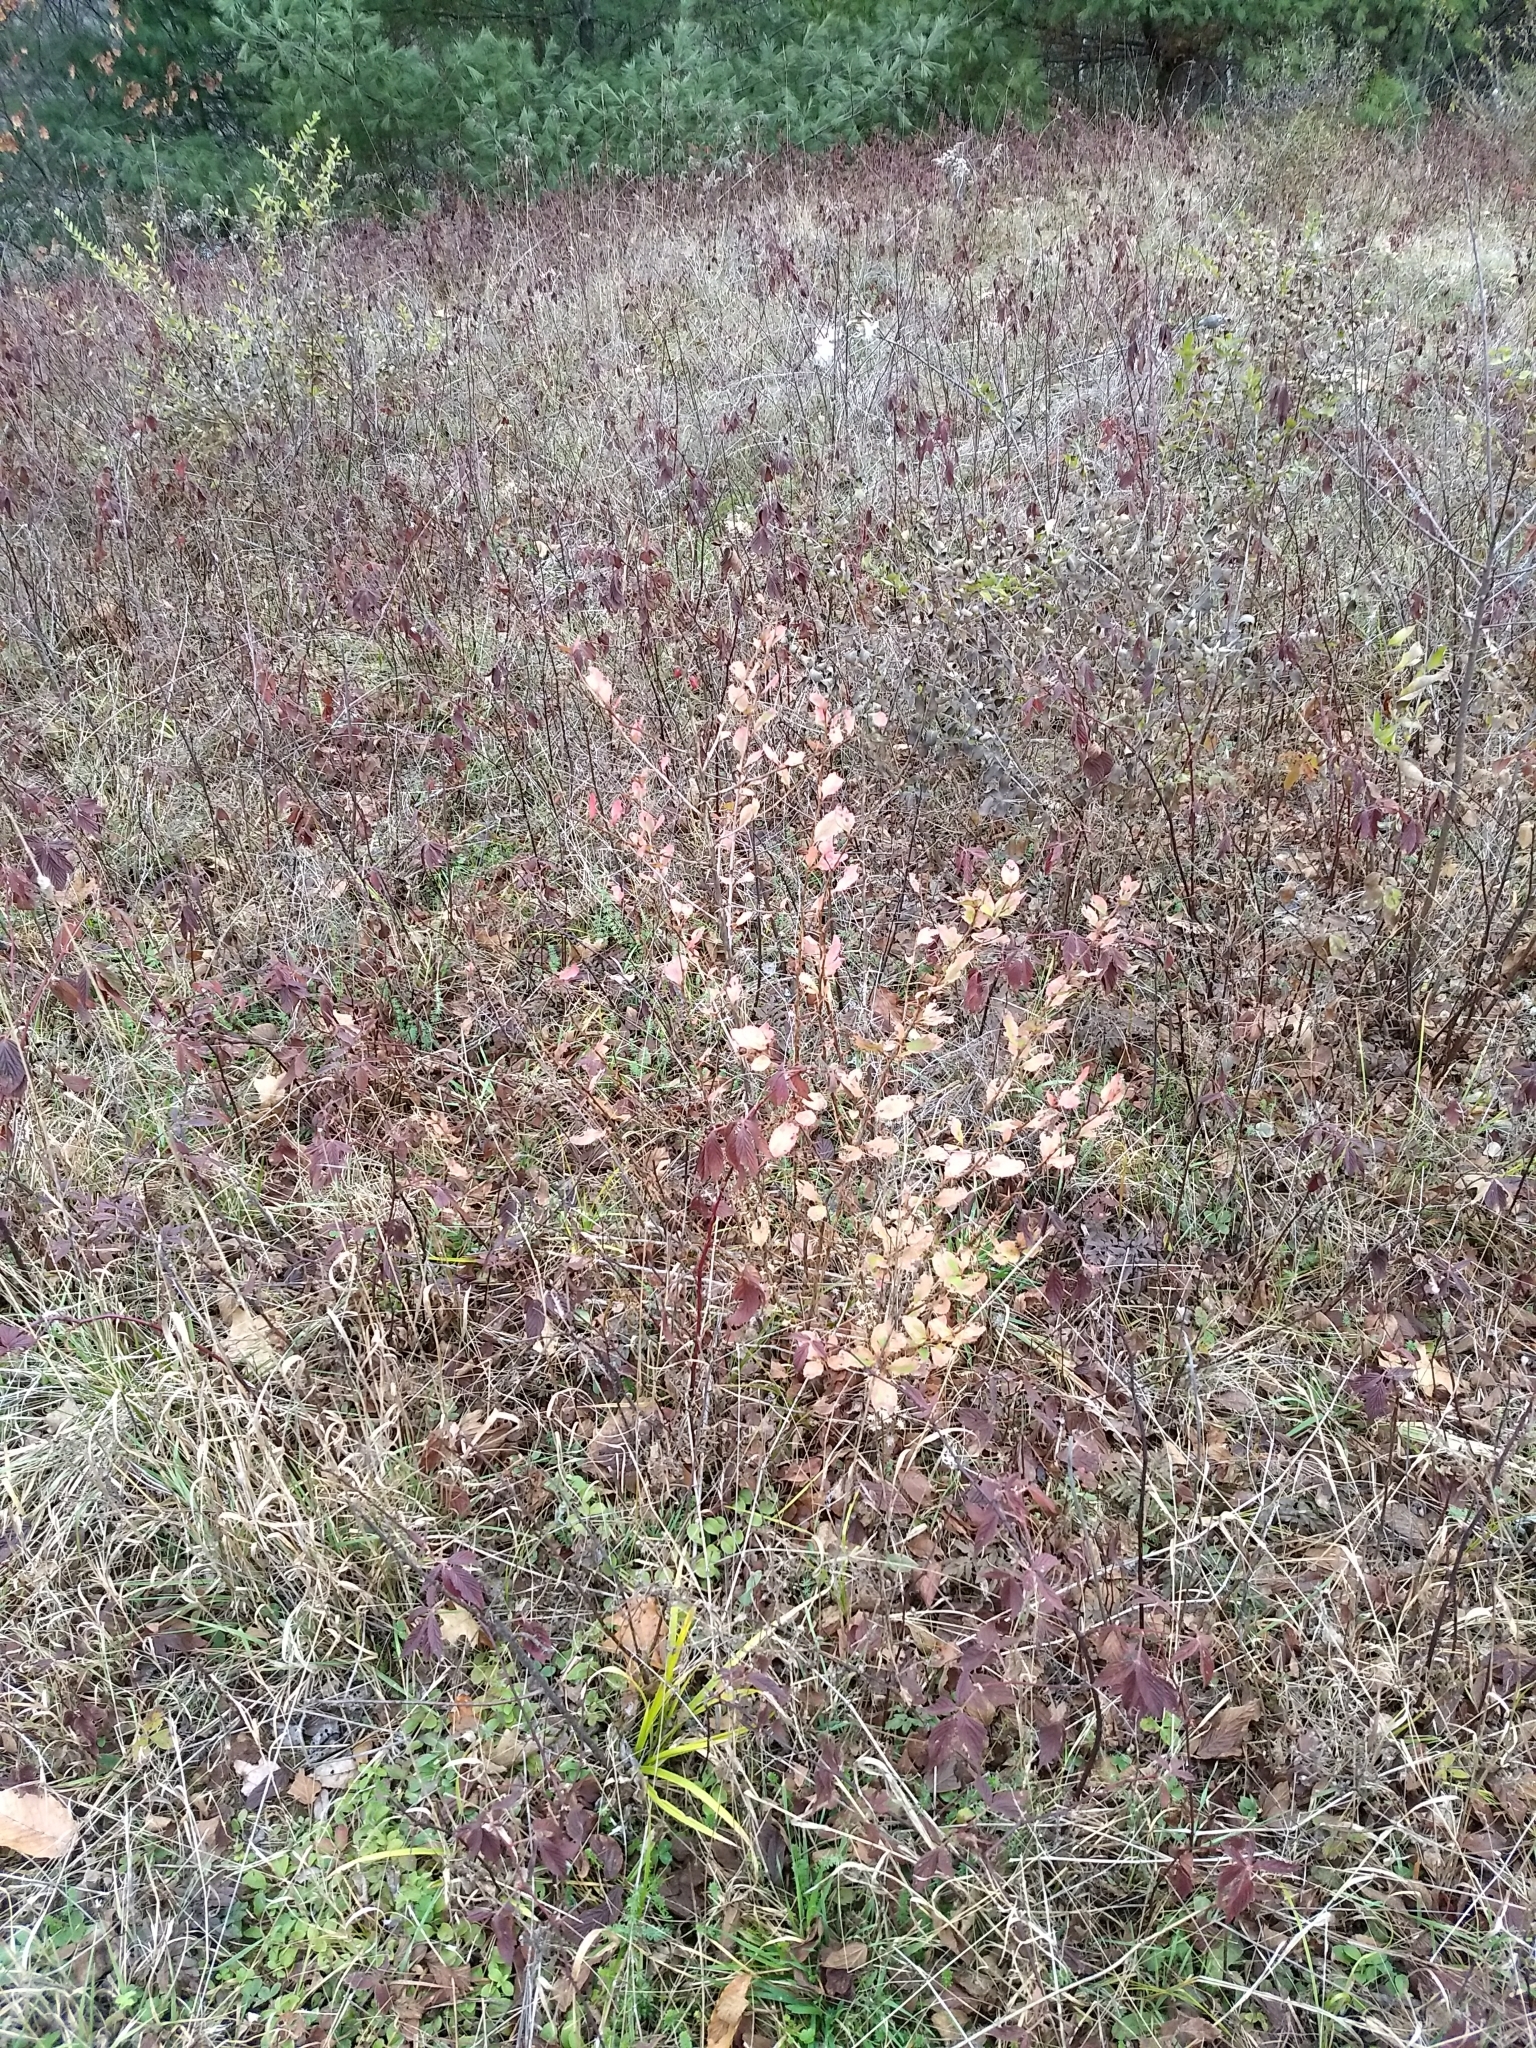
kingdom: Plantae
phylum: Tracheophyta
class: Magnoliopsida
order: Ranunculales
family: Berberidaceae
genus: Berberis
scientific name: Berberis vulgaris
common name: Barberry
